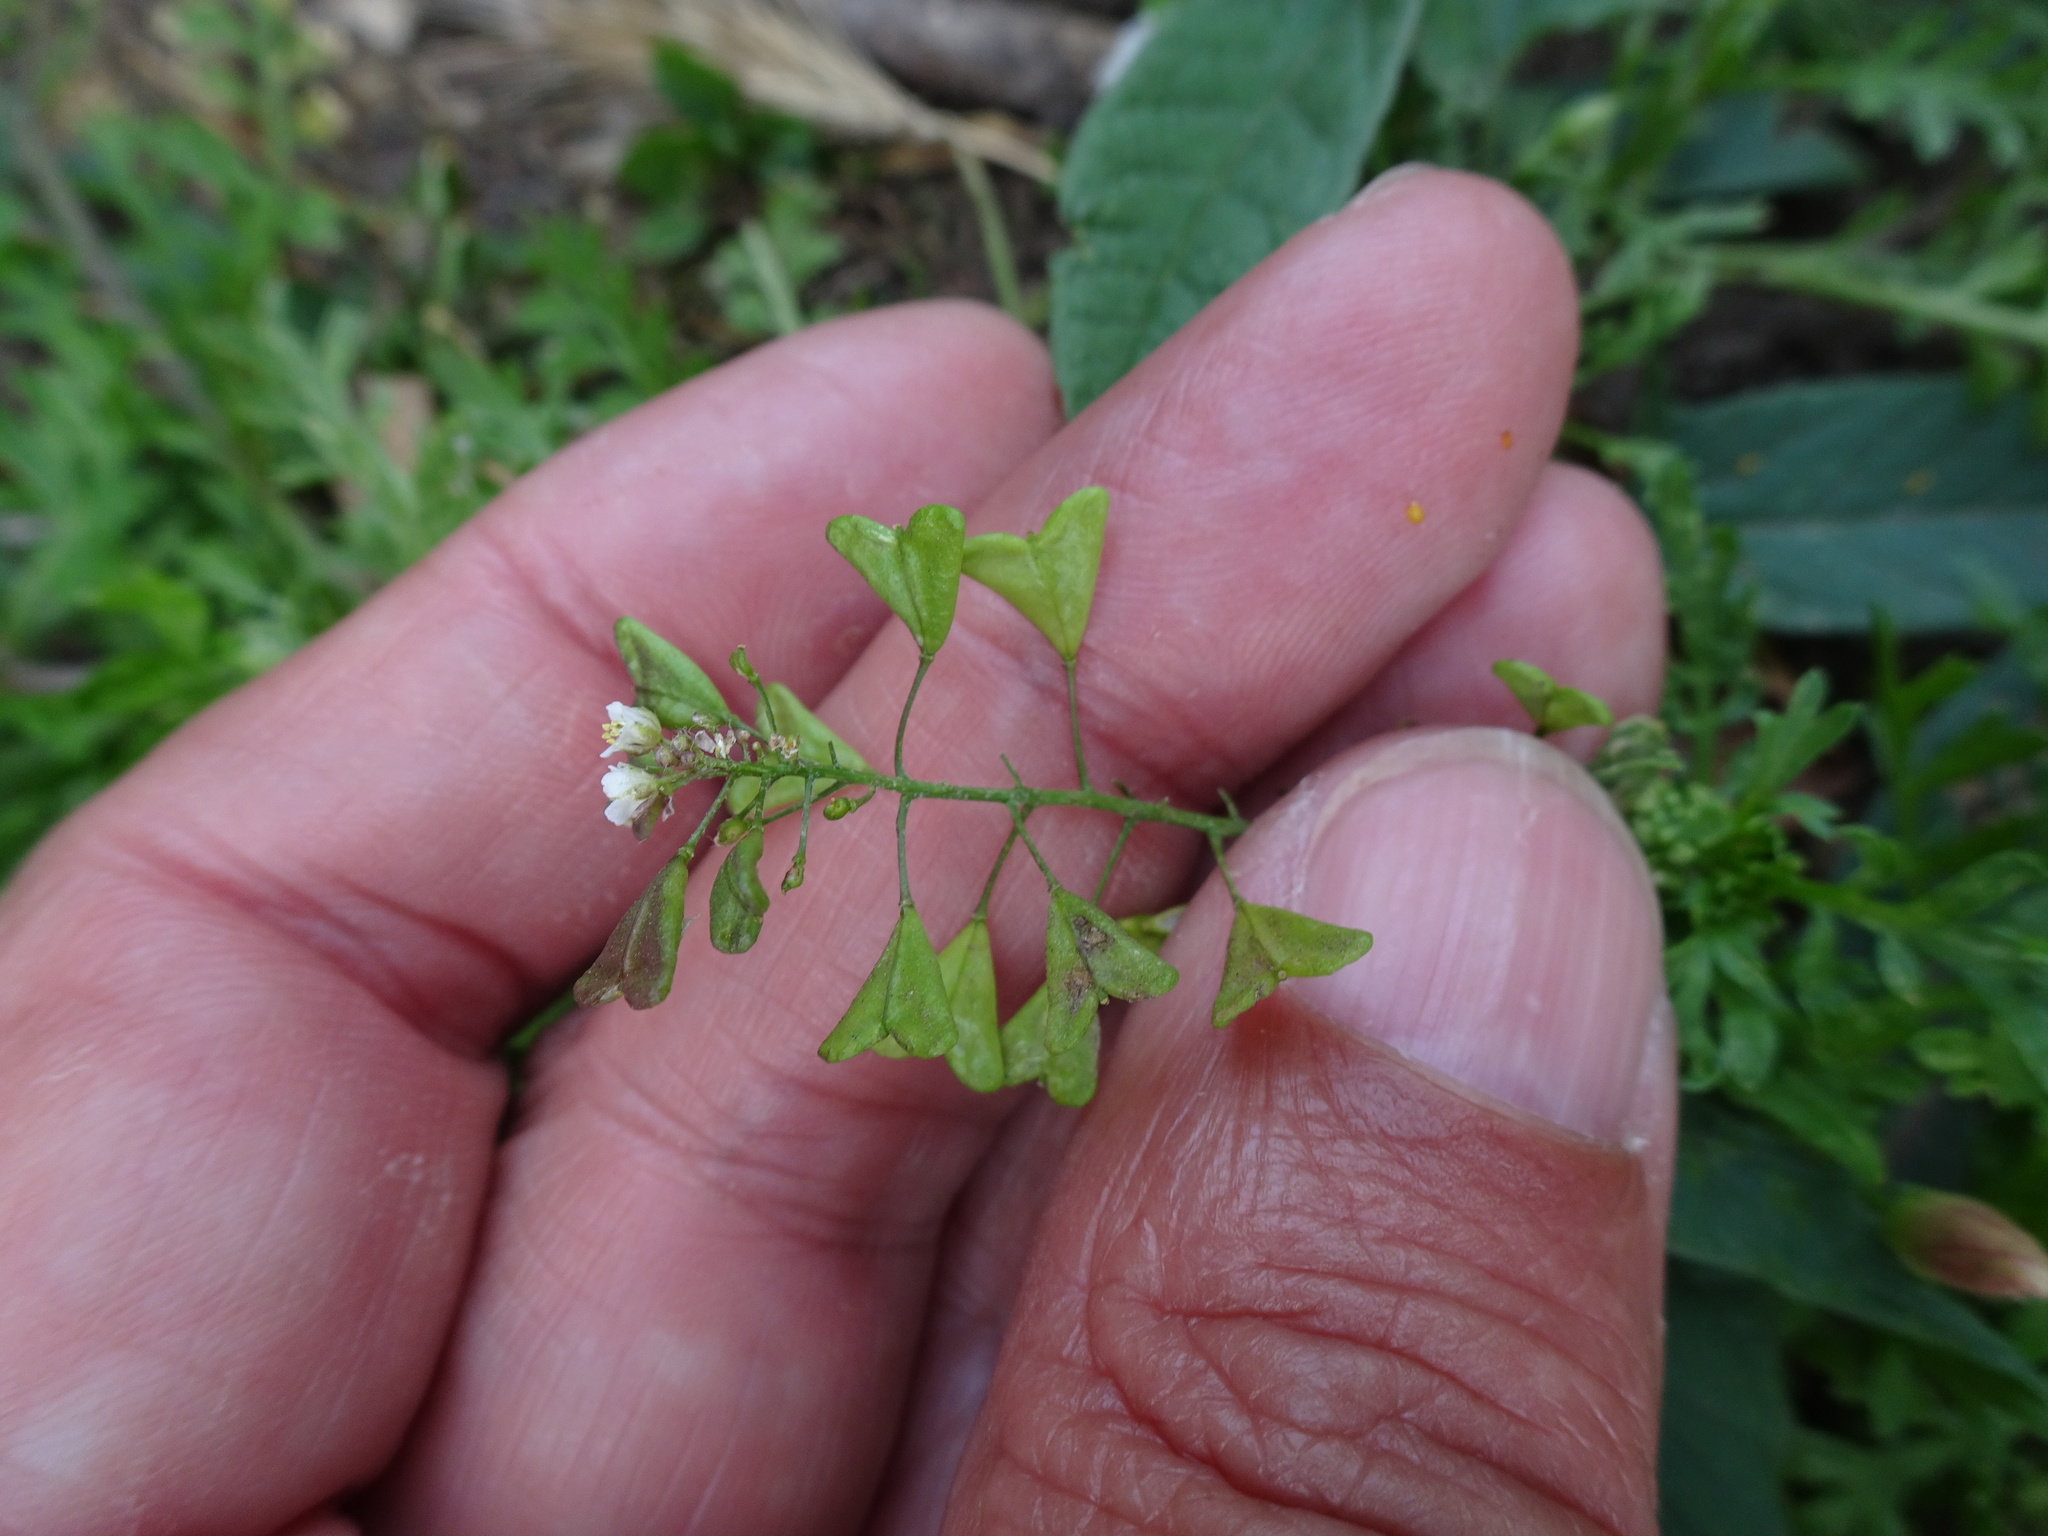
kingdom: Plantae
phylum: Tracheophyta
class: Magnoliopsida
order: Brassicales
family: Brassicaceae
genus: Capsella
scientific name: Capsella bursa-pastoris
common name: Shepherd's purse
